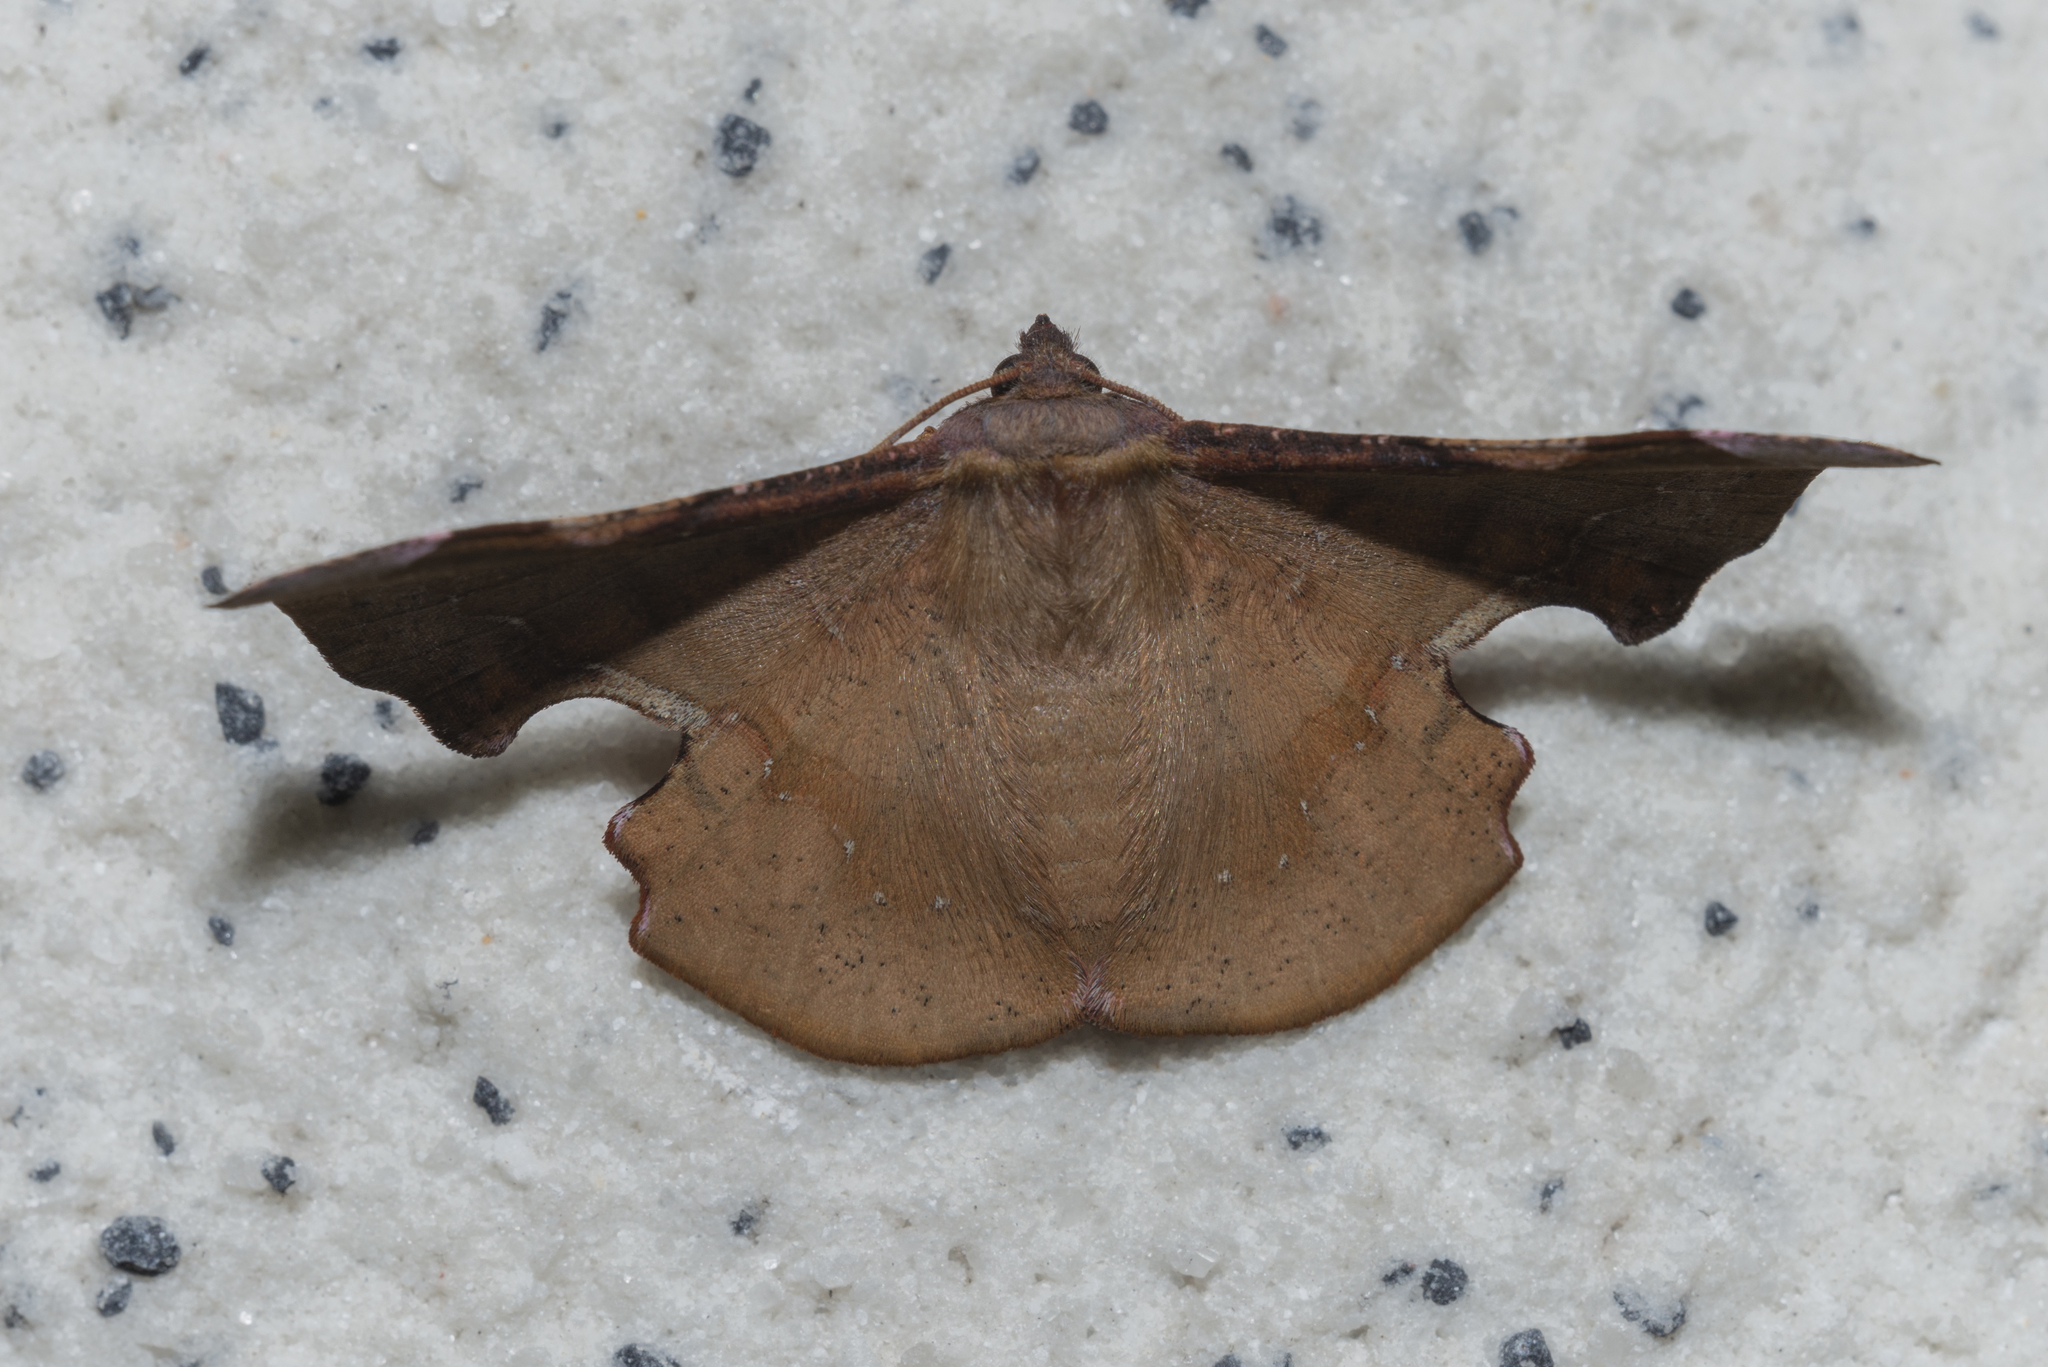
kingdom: Animalia
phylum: Arthropoda
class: Insecta
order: Lepidoptera
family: Geometridae
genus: Fascellina
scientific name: Fascellina chromataria
